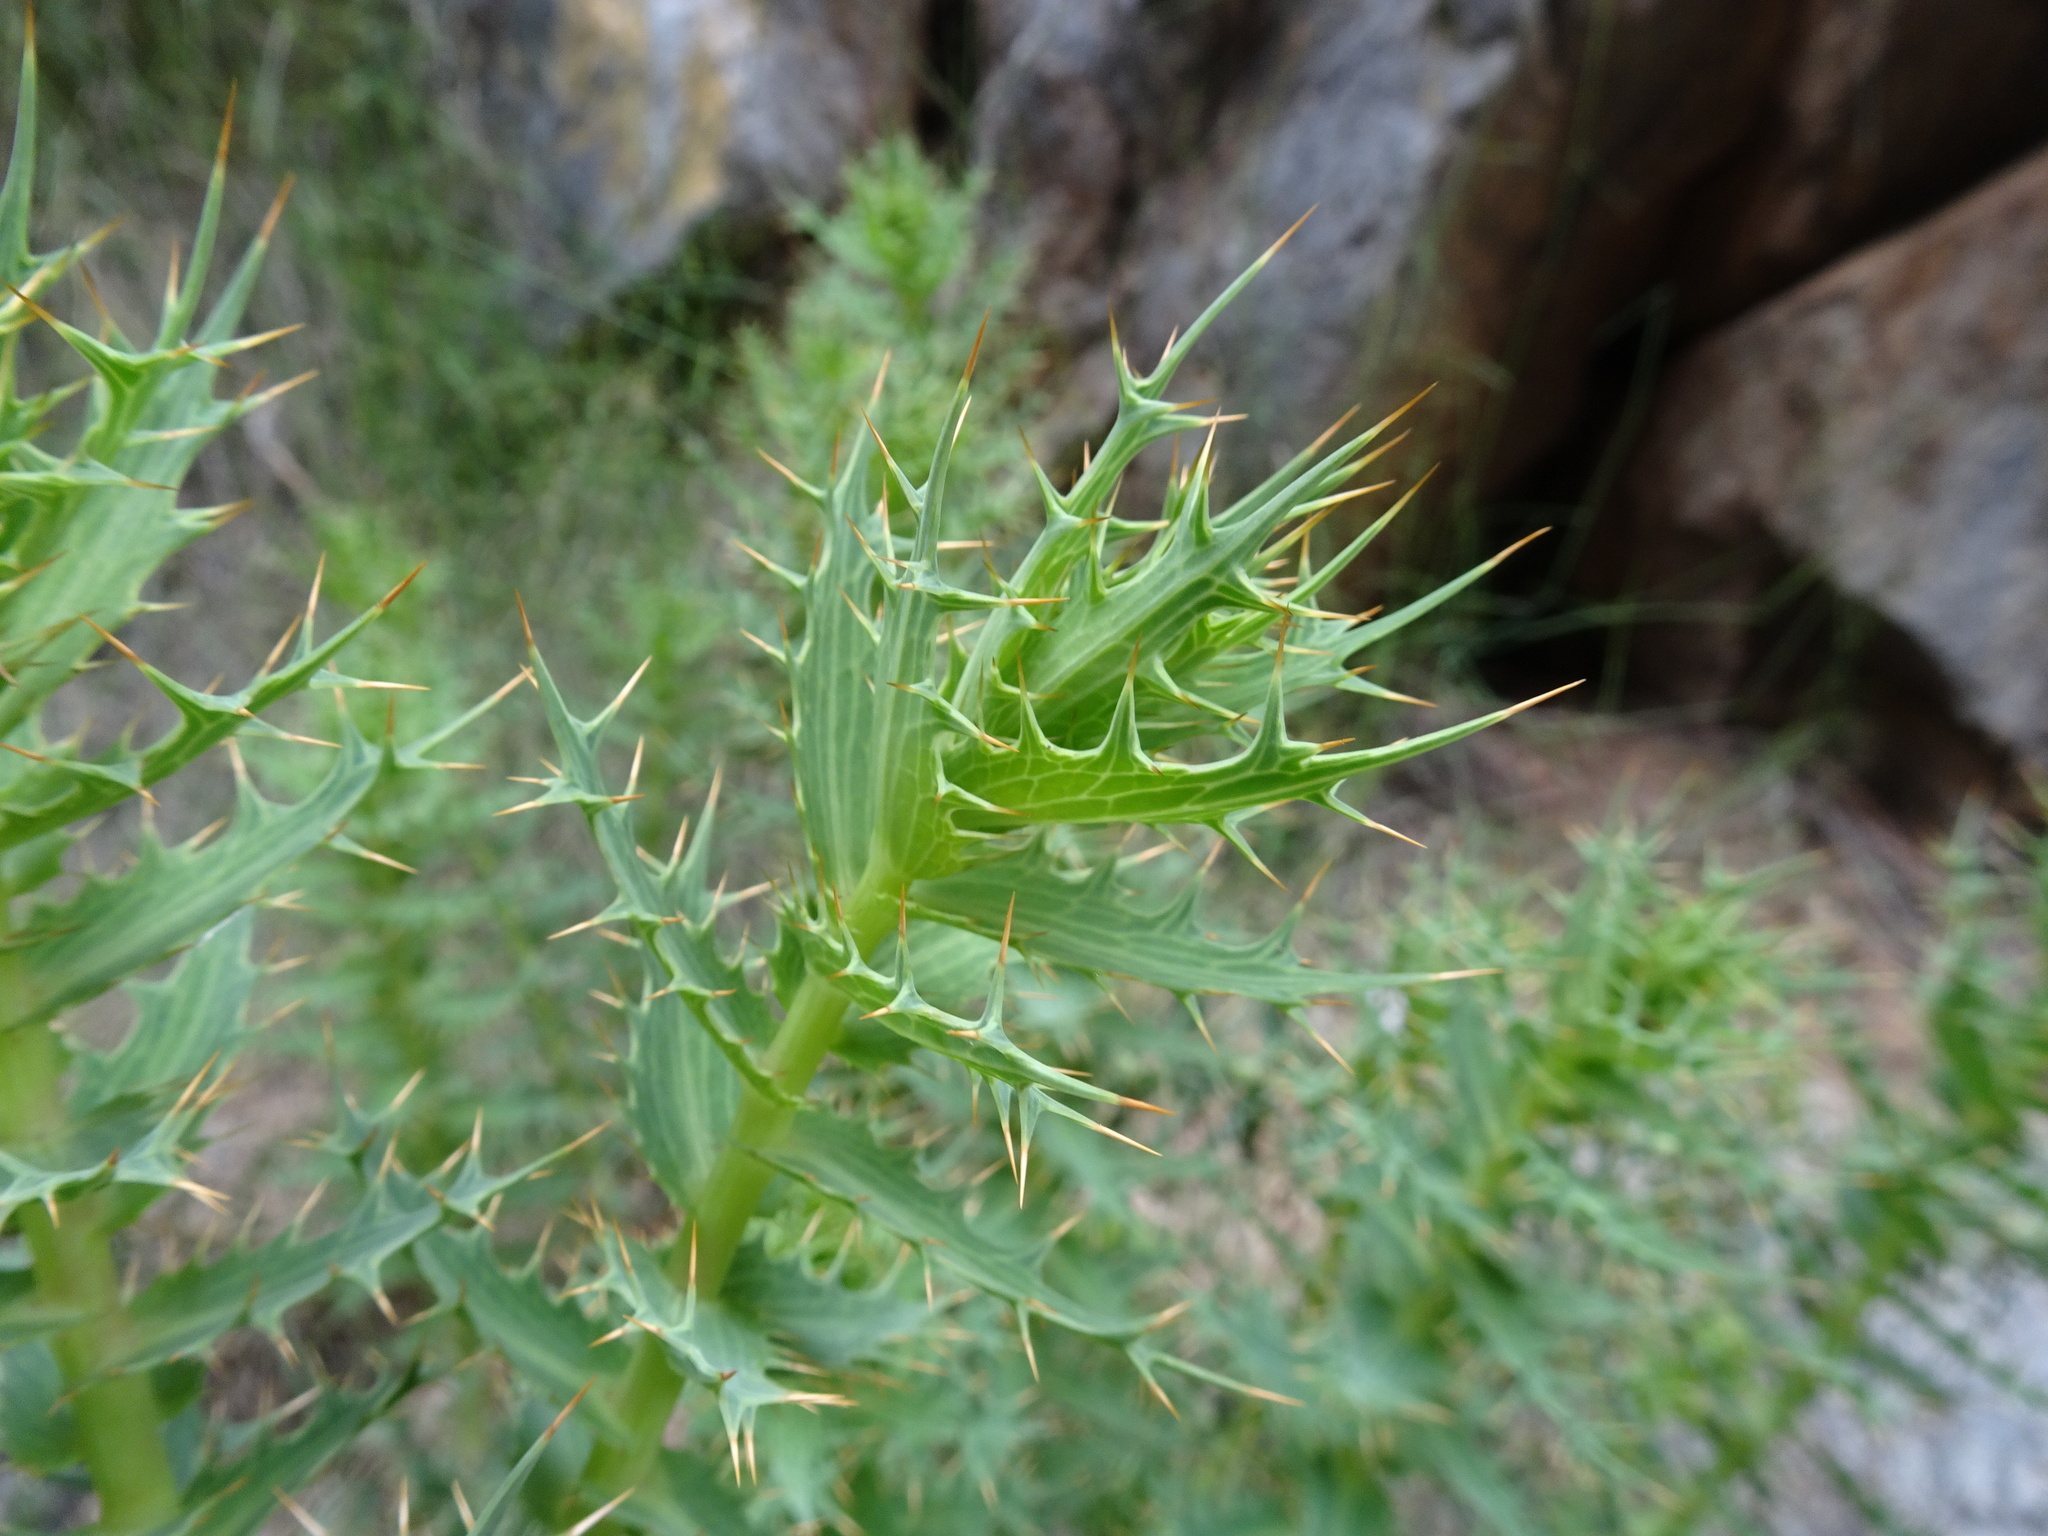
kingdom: Plantae
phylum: Tracheophyta
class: Magnoliopsida
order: Asterales
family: Asteraceae
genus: Berkheya
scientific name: Berkheya cruciata
